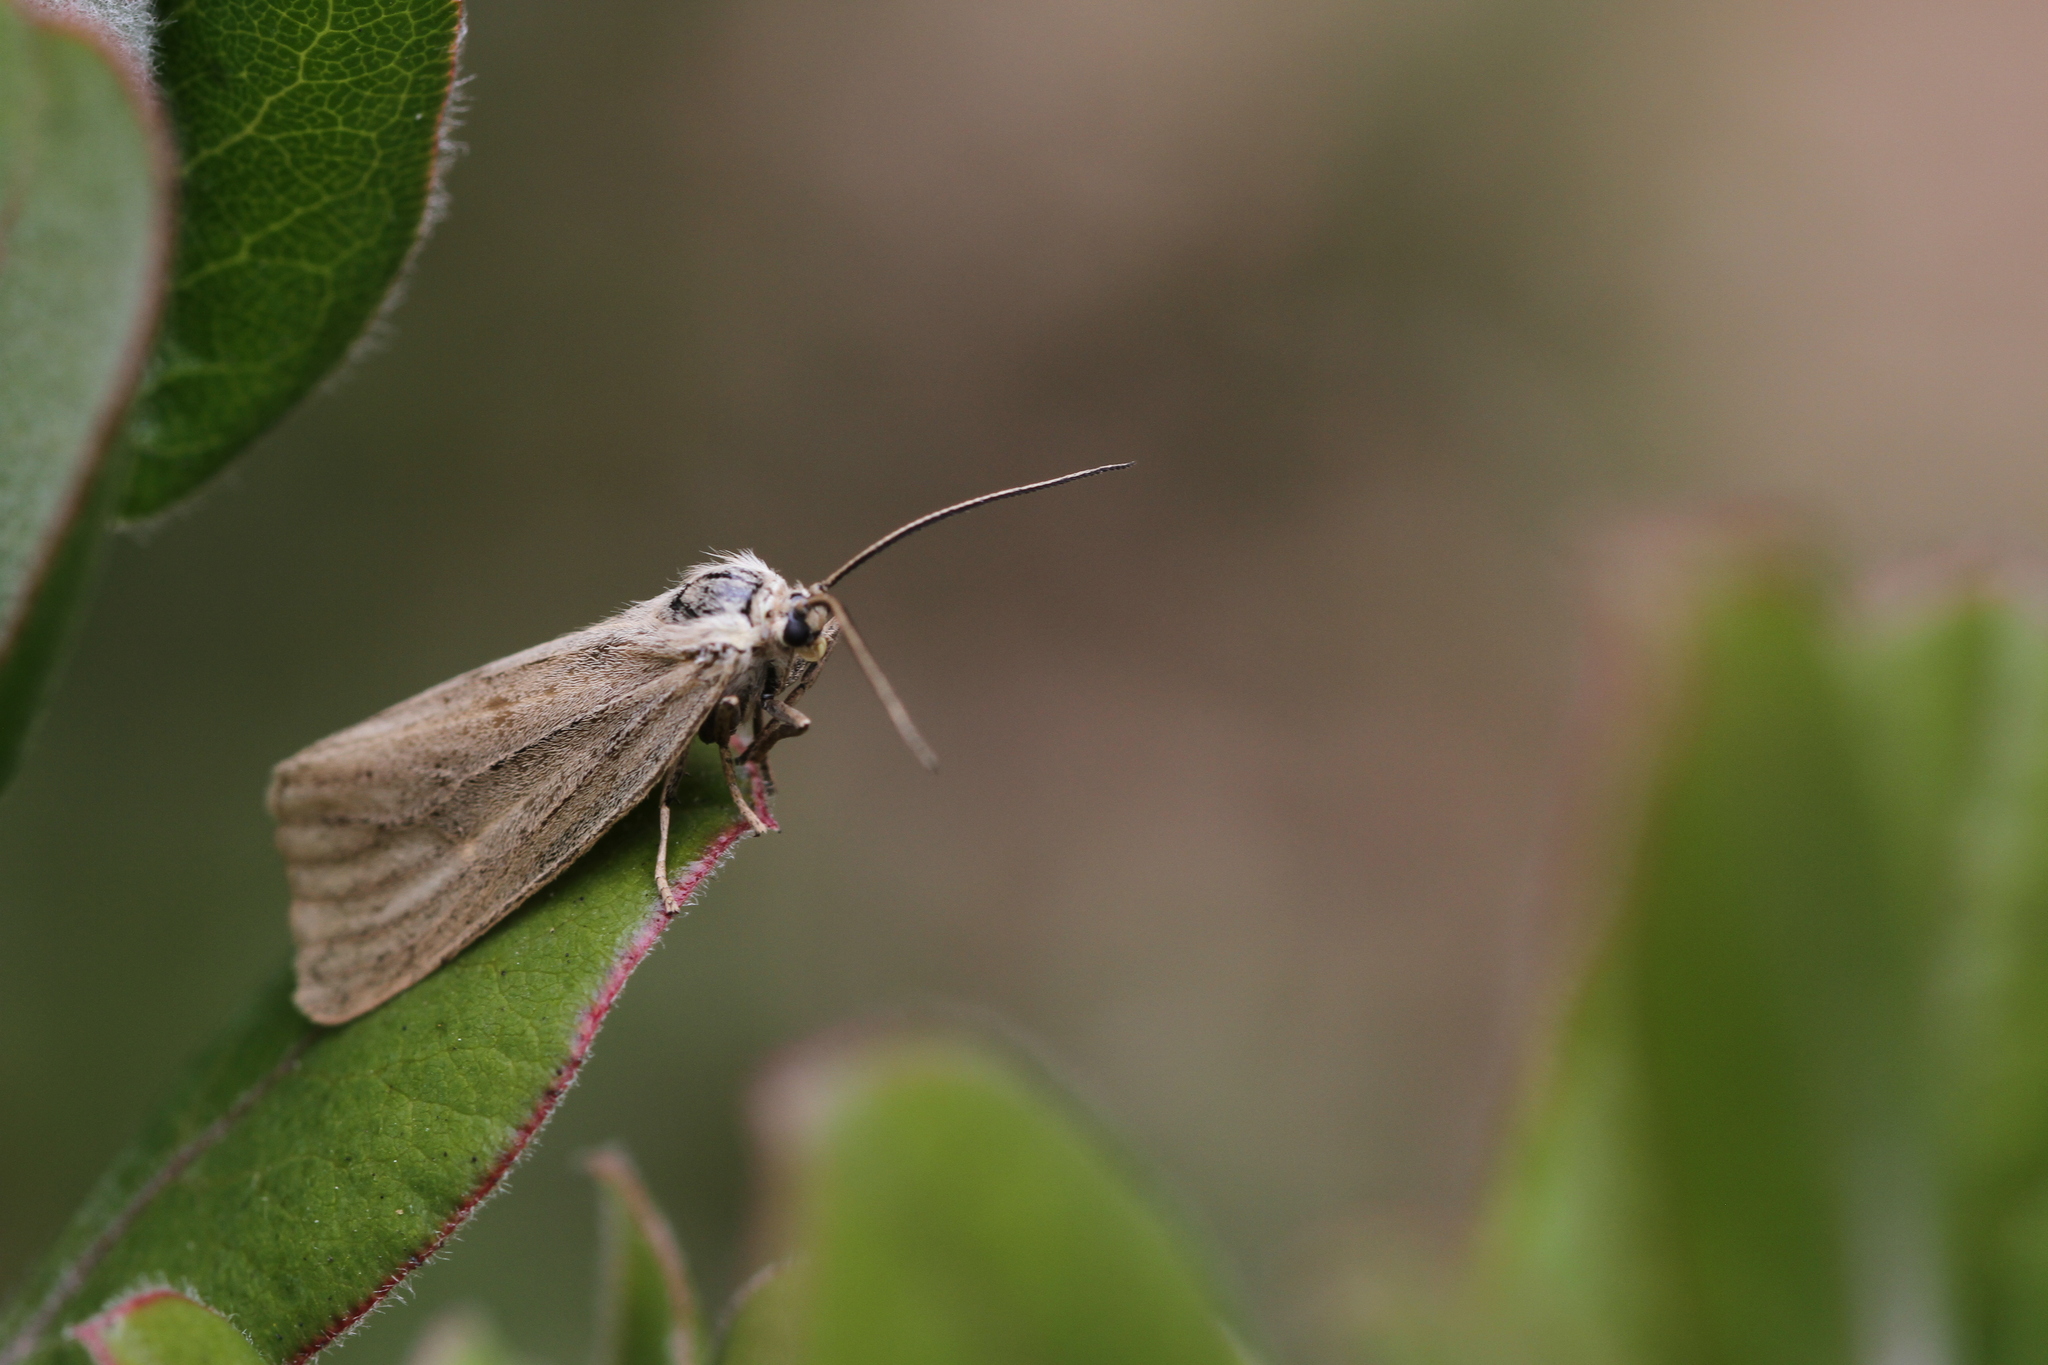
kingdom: Animalia
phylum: Arthropoda
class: Insecta
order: Lepidoptera
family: Notodontidae
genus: Phryganidia
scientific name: Phryganidia californica
